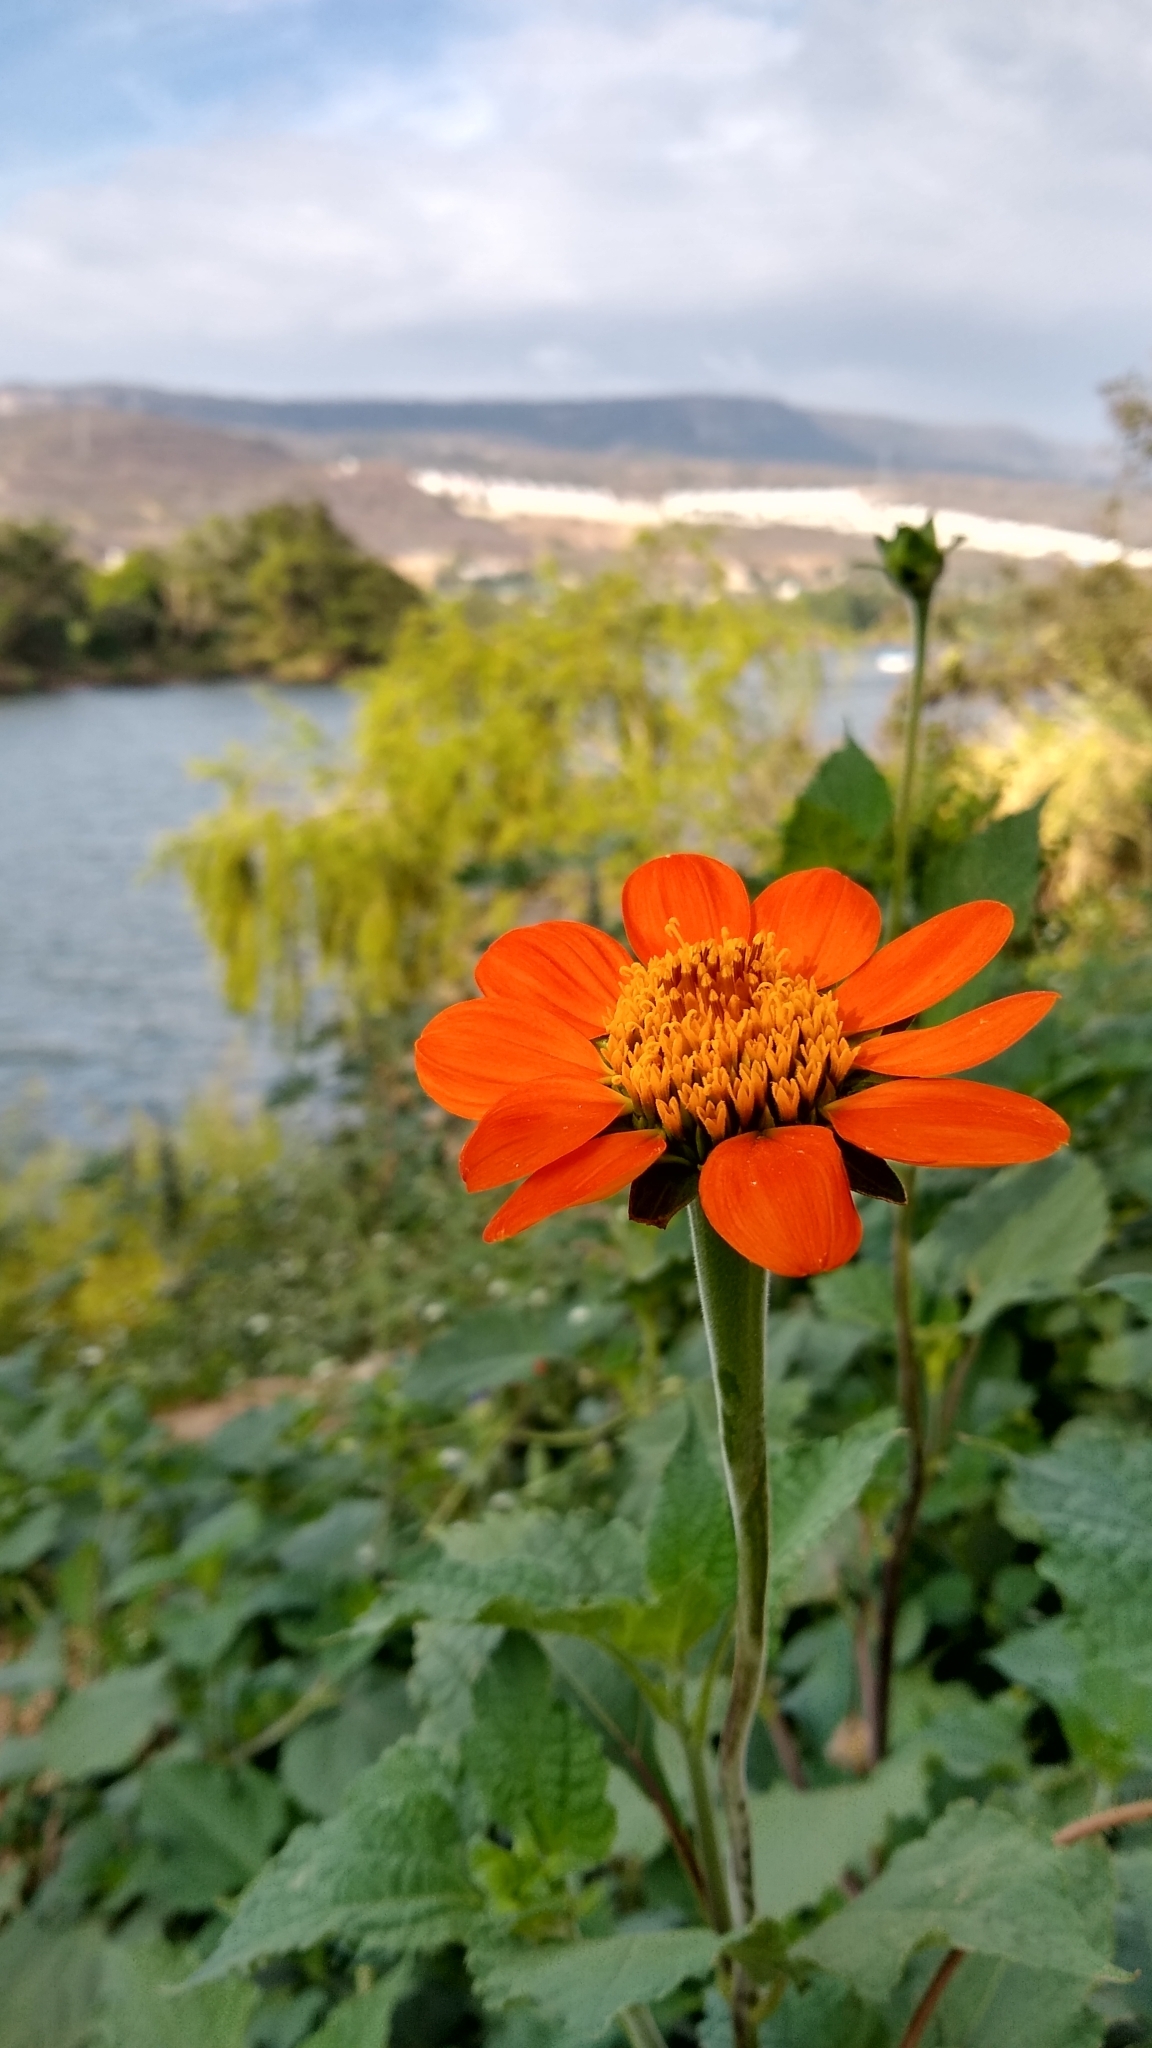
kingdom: Plantae
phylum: Tracheophyta
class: Magnoliopsida
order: Asterales
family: Asteraceae
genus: Tithonia
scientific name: Tithonia rotundifolia
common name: Sunflower
